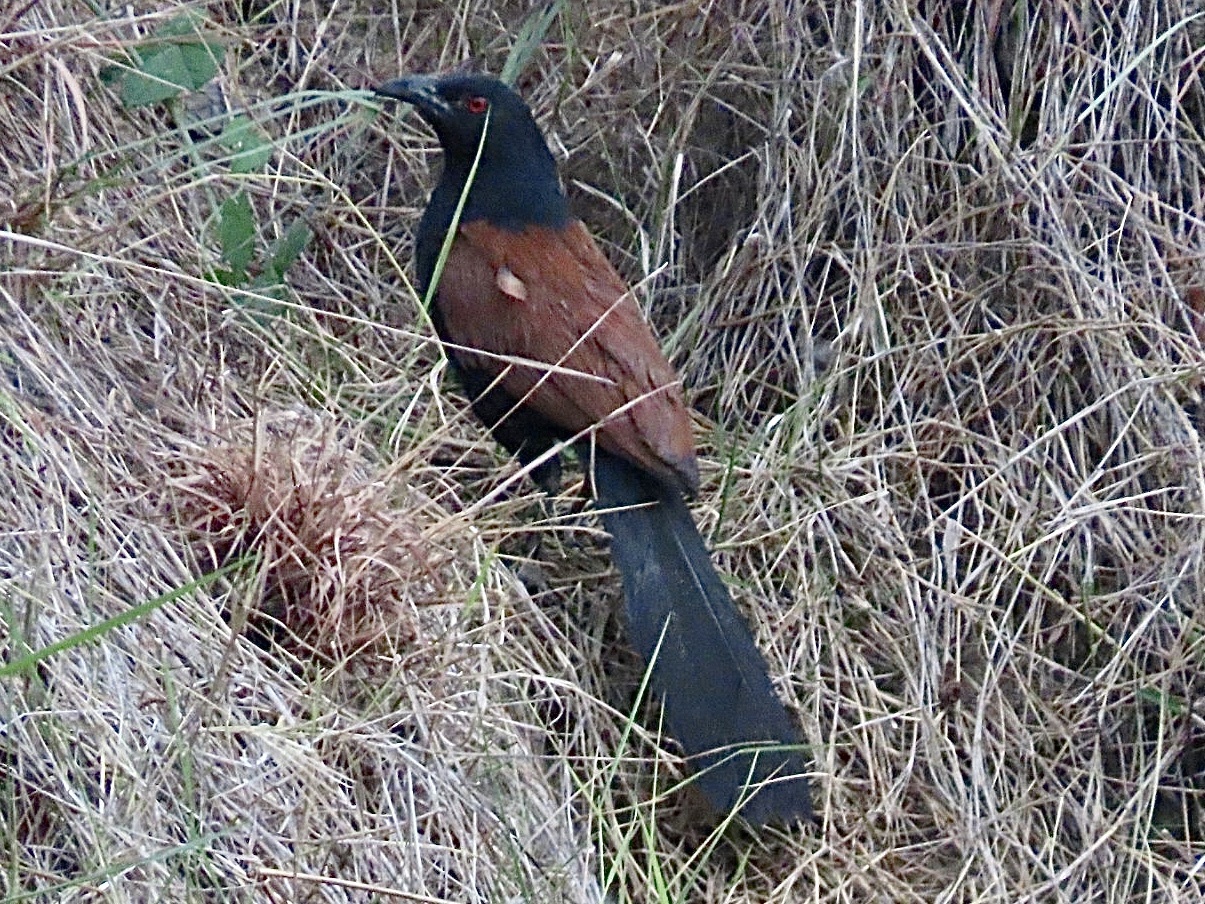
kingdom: Animalia
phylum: Chordata
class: Aves
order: Cuculiformes
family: Cuculidae
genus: Centropus
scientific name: Centropus sinensis
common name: Greater coucal
